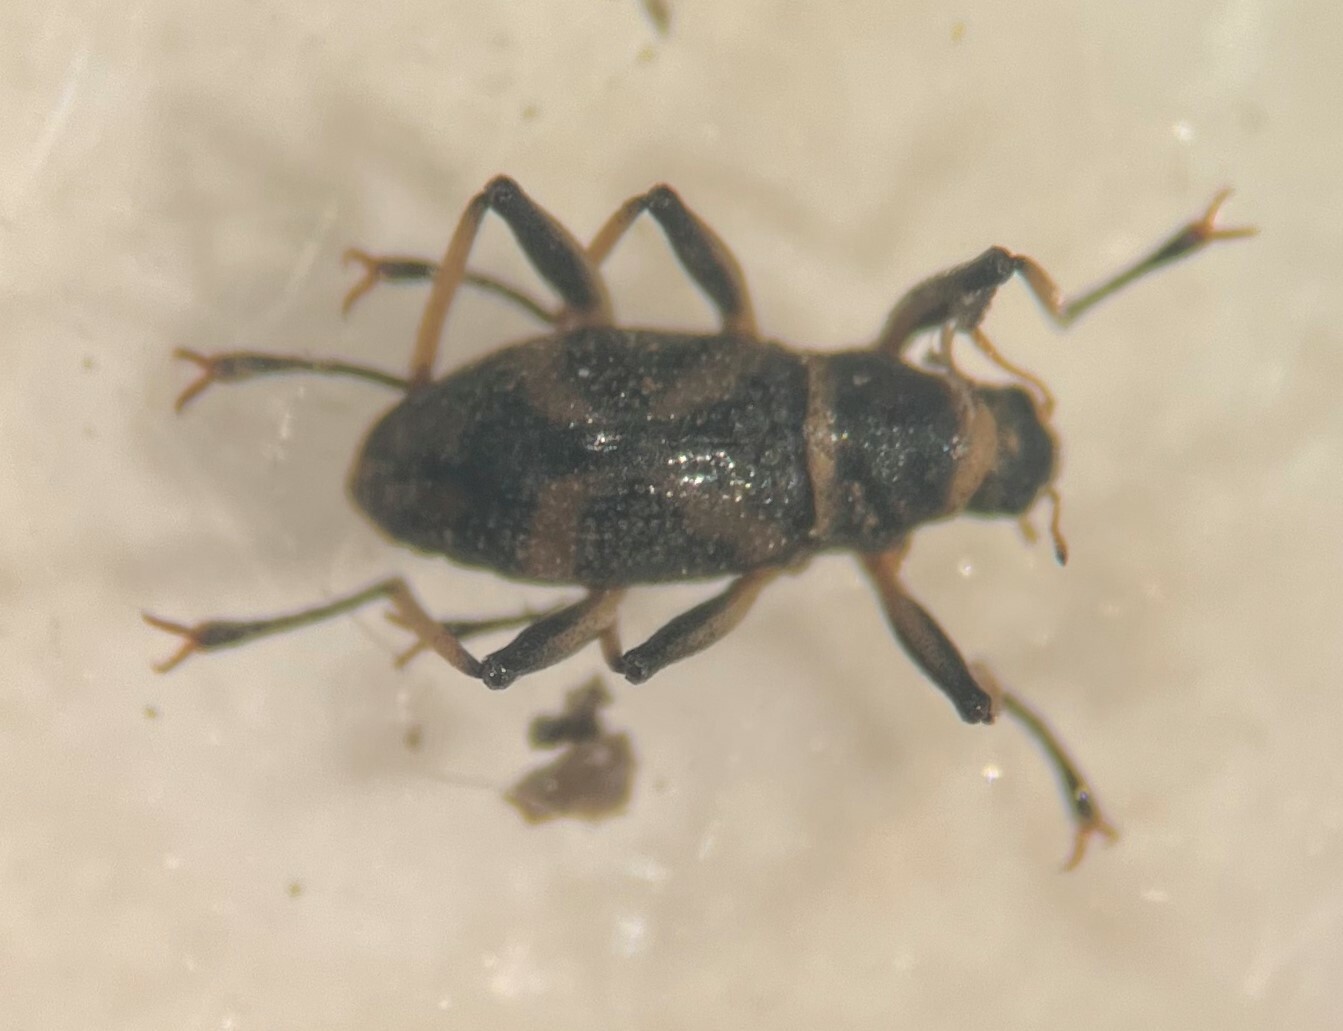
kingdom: Animalia
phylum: Arthropoda
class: Insecta
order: Coleoptera
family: Elmidae
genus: Ancyronyx
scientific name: Ancyronyx variegatus
